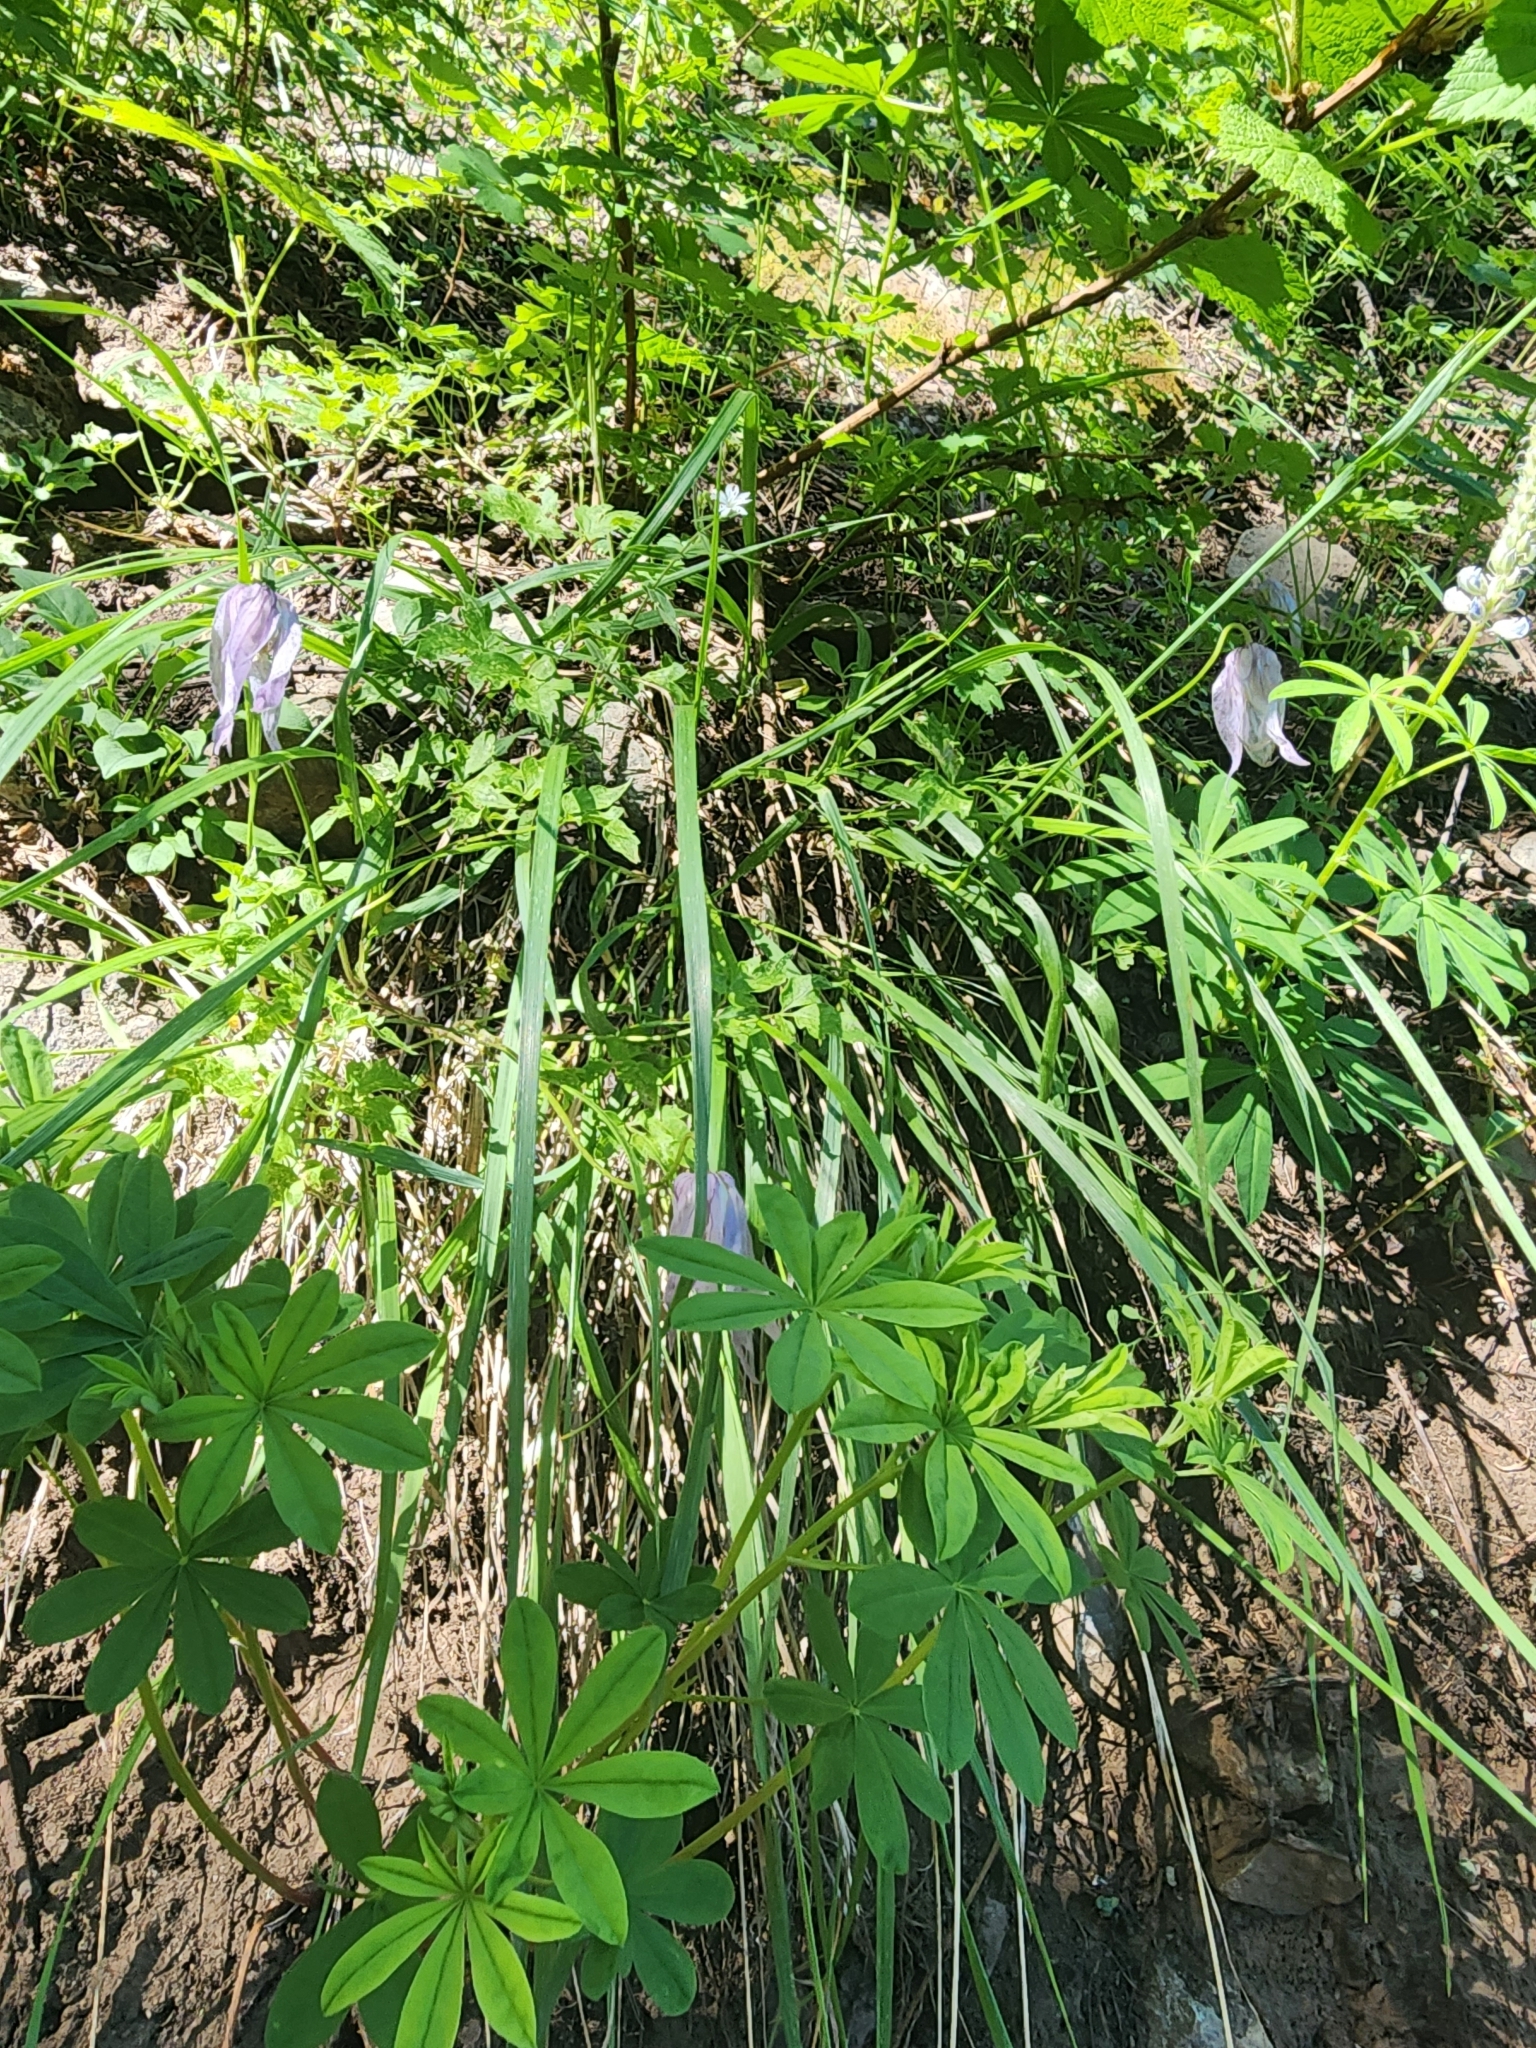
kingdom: Plantae
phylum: Tracheophyta
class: Magnoliopsida
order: Ranunculales
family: Ranunculaceae
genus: Clematis
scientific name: Clematis columbiana
